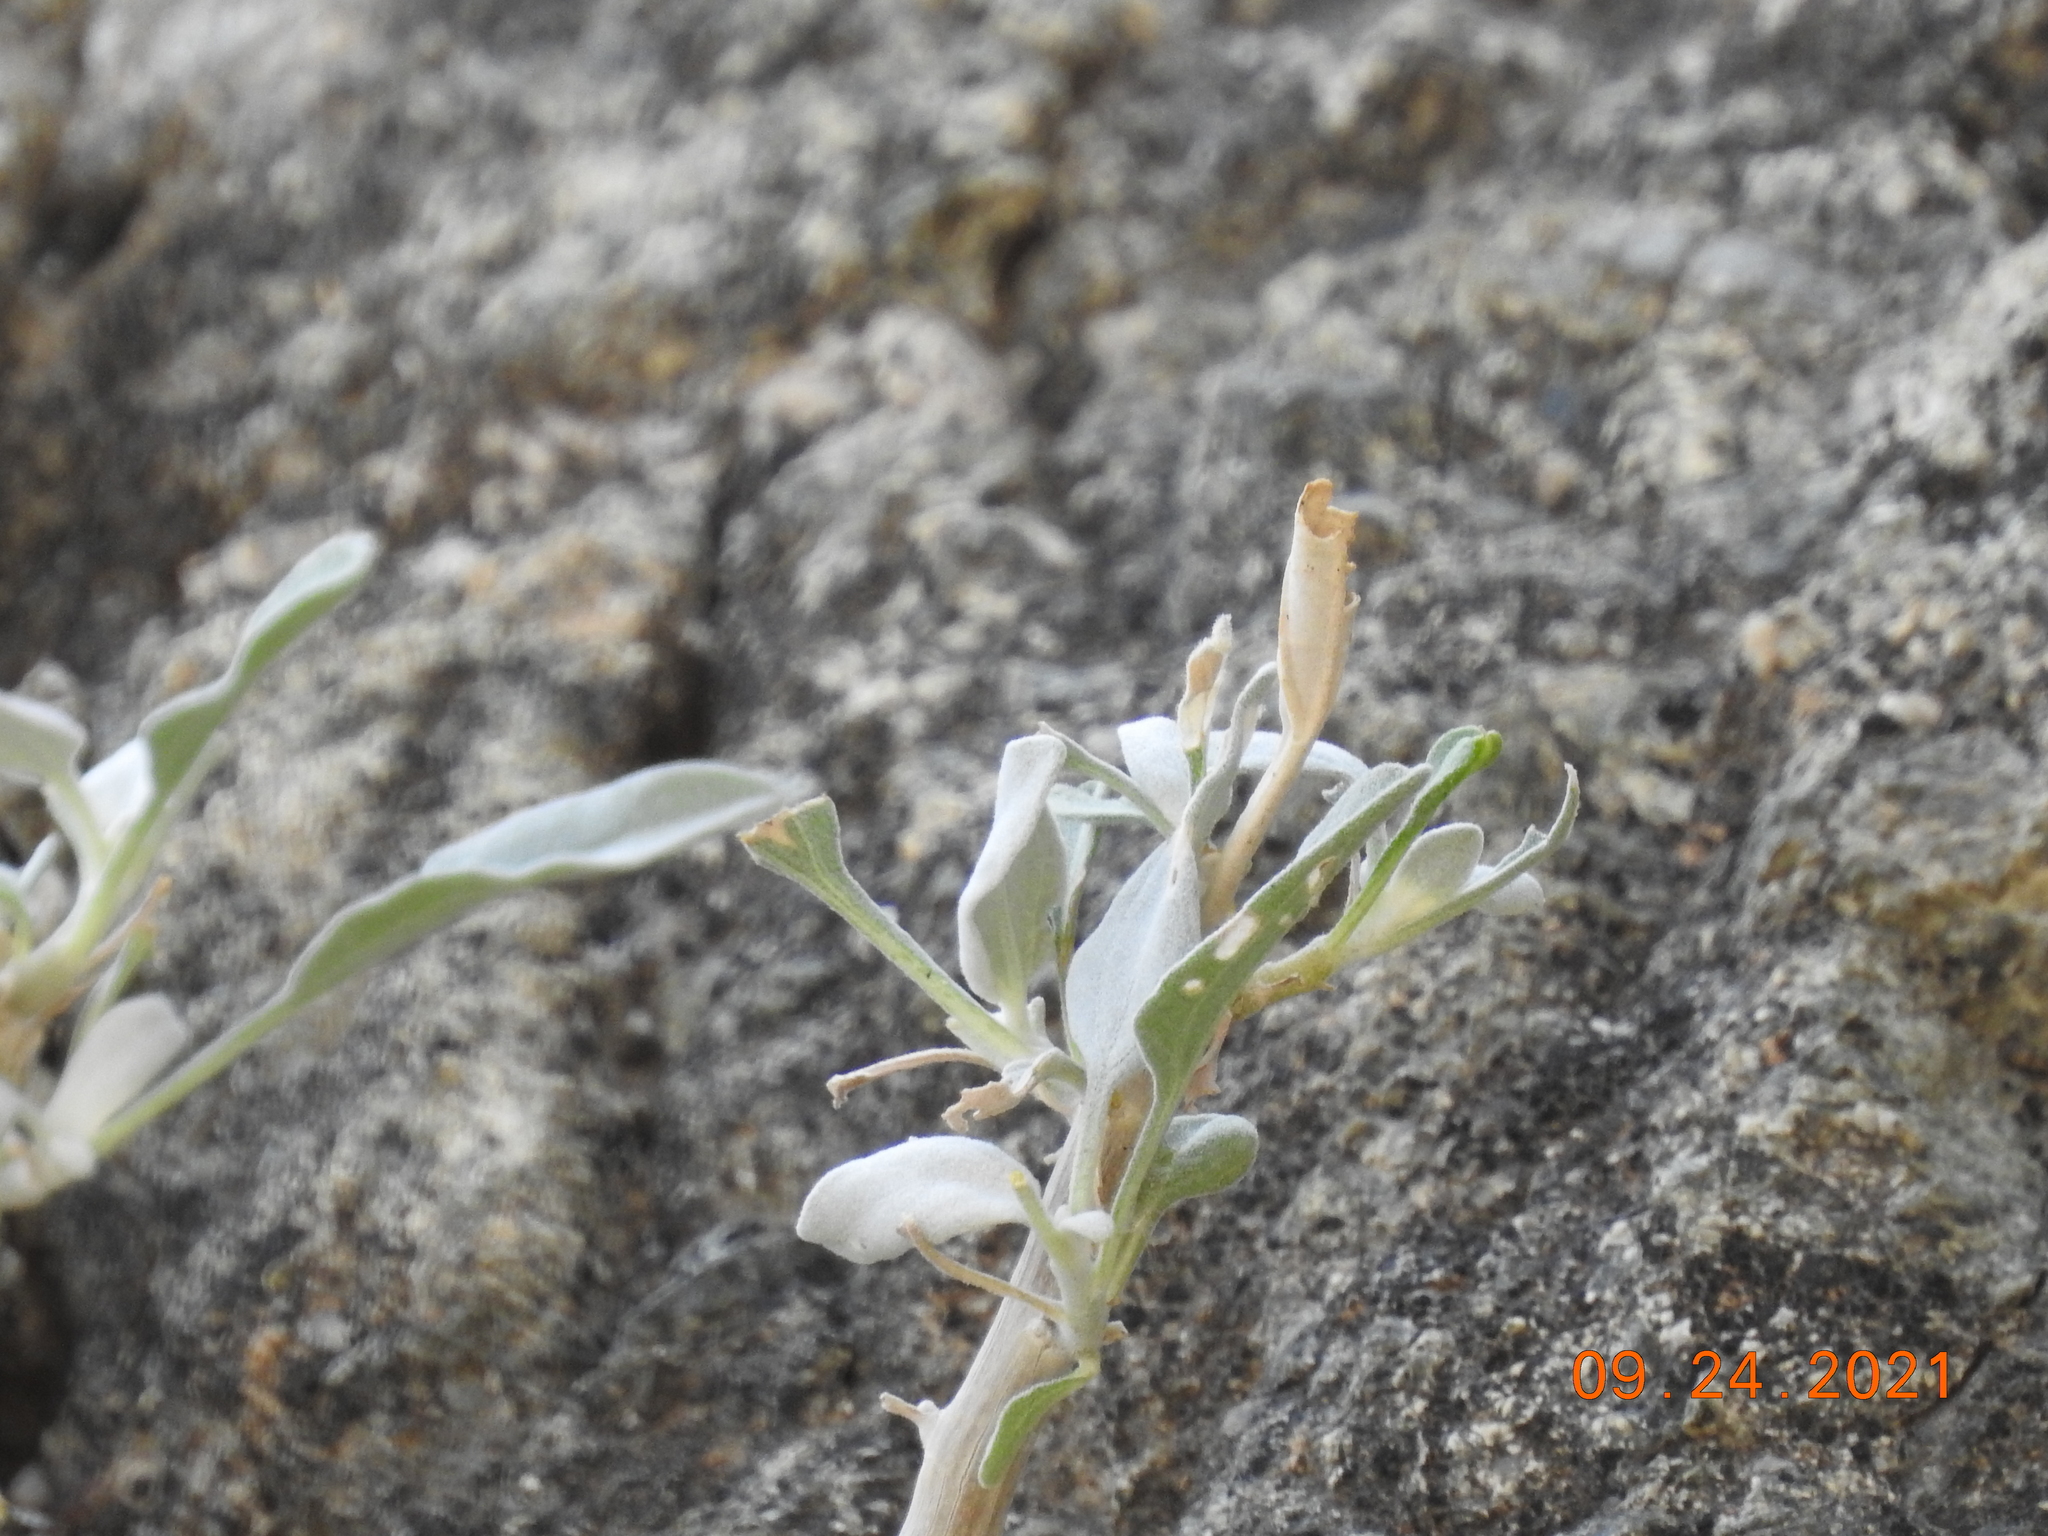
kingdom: Plantae
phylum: Tracheophyta
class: Magnoliopsida
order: Asterales
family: Asteraceae
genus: Encelia
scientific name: Encelia farinosa
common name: Brittlebush
